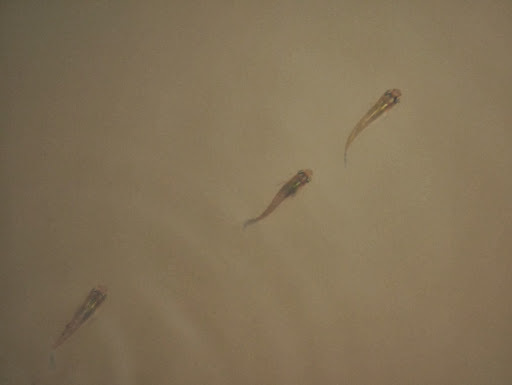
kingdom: Animalia
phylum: Chordata
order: Cyprinodontiformes
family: Poeciliidae
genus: Gambusia
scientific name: Gambusia holbrooki
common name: Eastern mosquitofish
